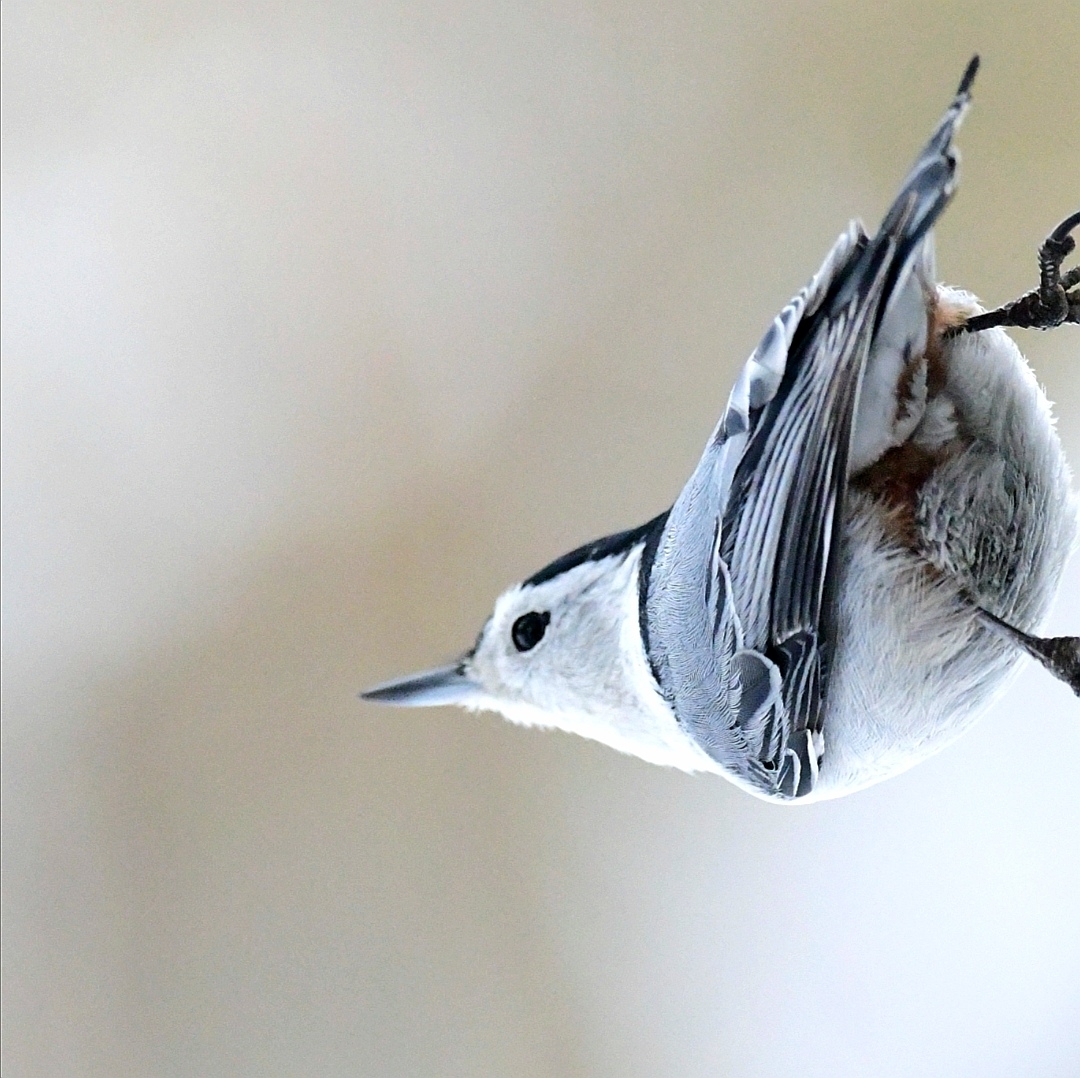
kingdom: Animalia
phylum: Chordata
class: Aves
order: Passeriformes
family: Sittidae
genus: Sitta
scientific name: Sitta carolinensis
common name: White-breasted nuthatch
